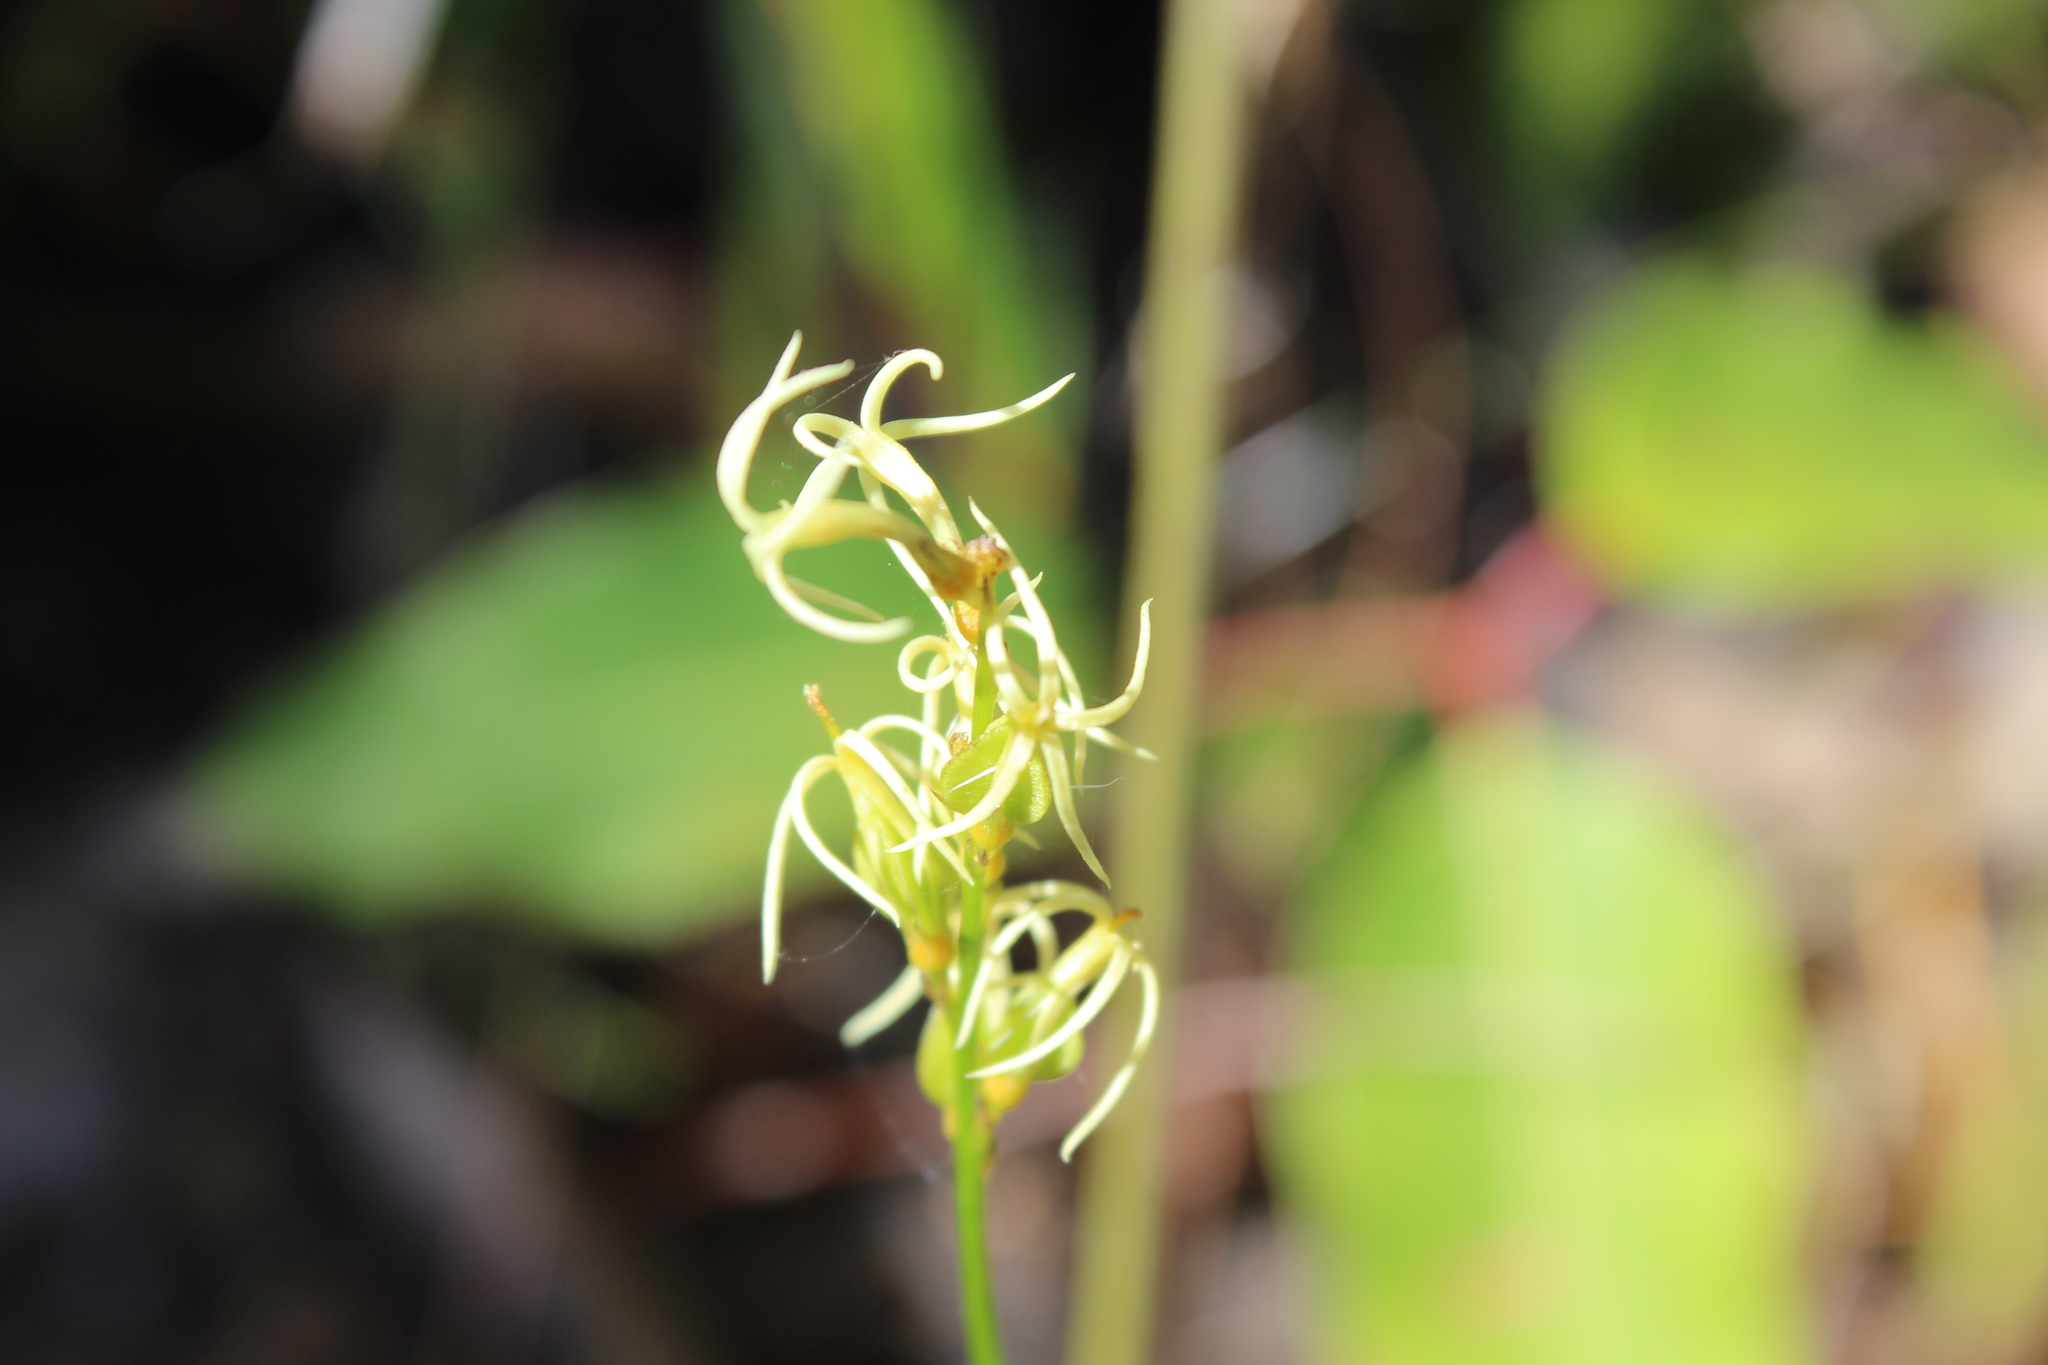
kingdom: Plantae
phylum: Tracheophyta
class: Magnoliopsida
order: Celastrales
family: Celastraceae
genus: Tripterococcus
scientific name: Tripterococcus brunonis
